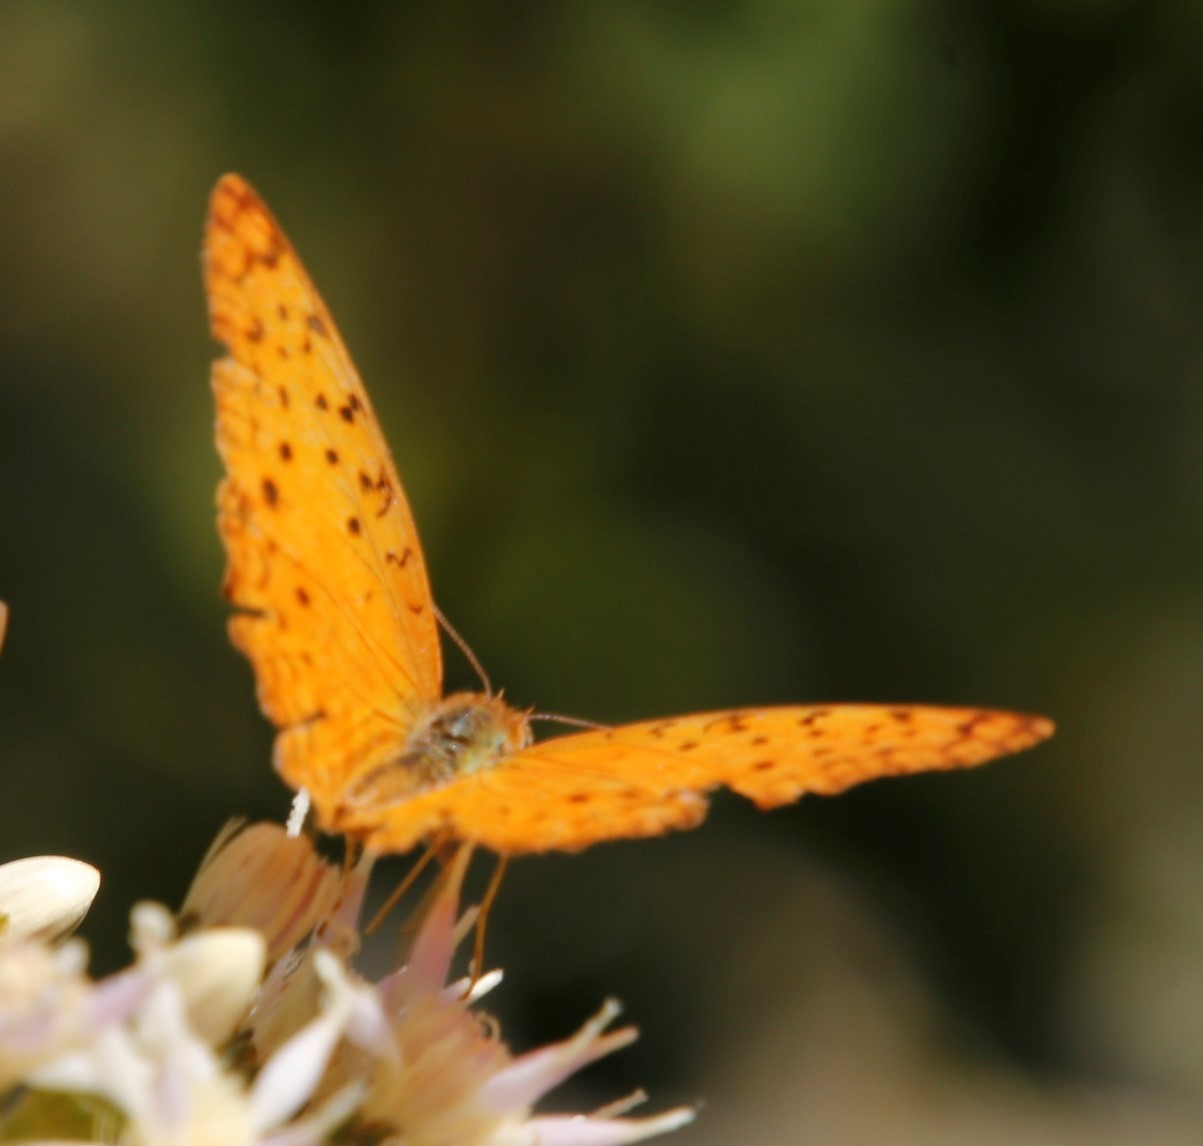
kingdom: Animalia
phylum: Arthropoda
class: Insecta
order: Lepidoptera
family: Nymphalidae
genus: Phalanta
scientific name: Phalanta phalantha
